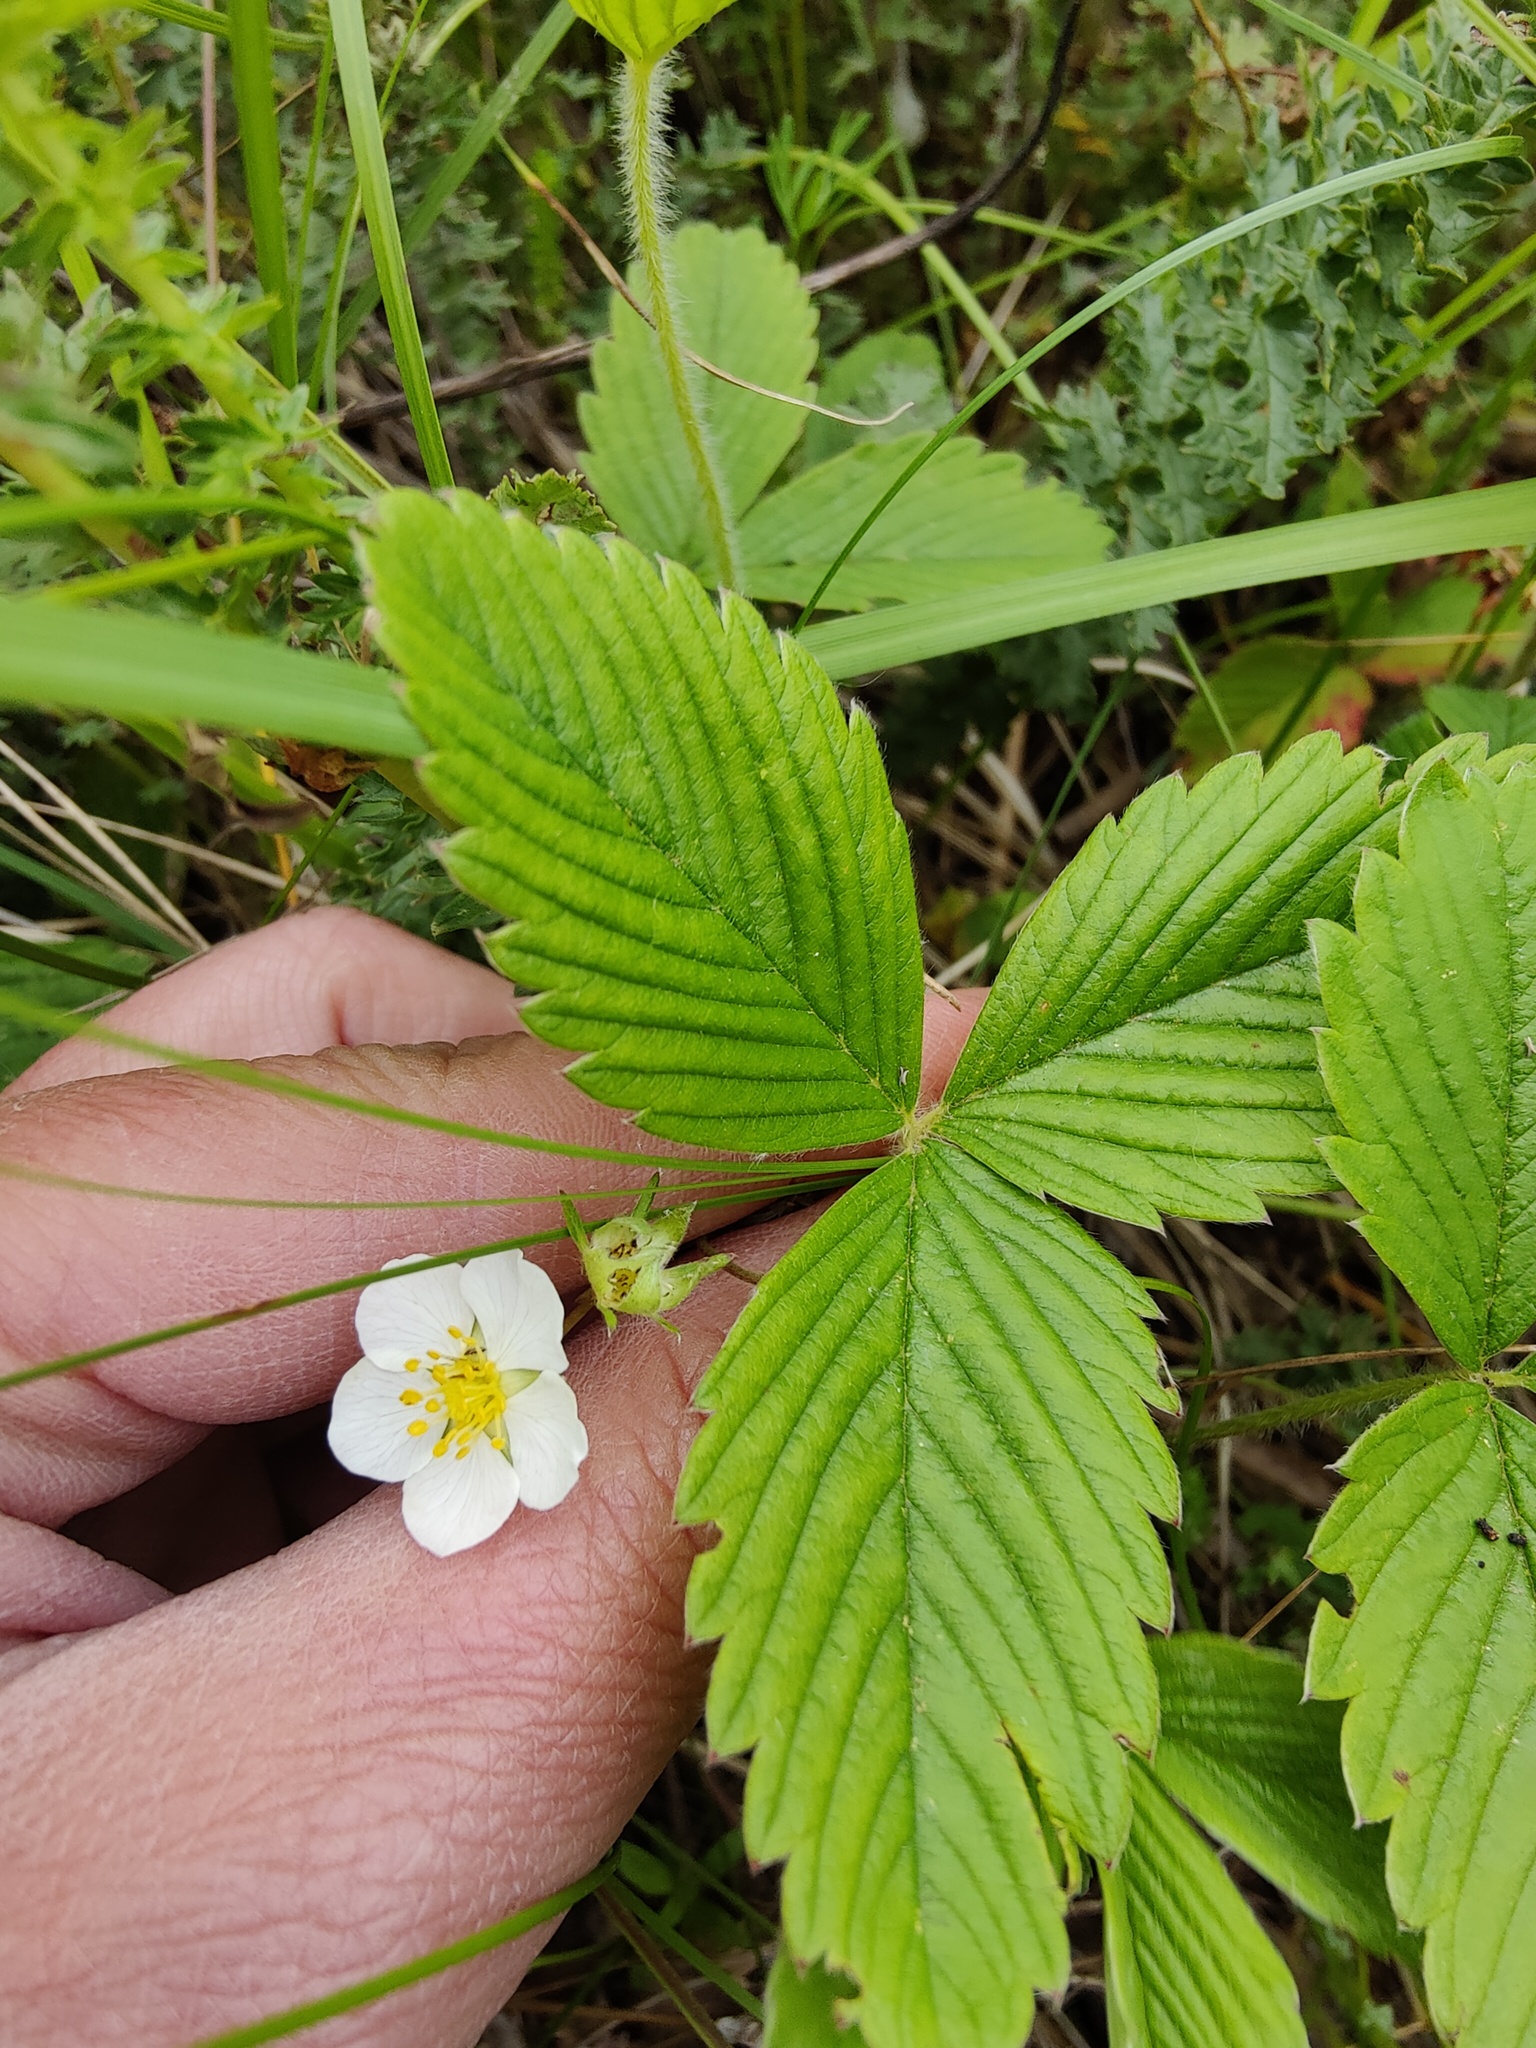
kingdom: Plantae
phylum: Tracheophyta
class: Magnoliopsida
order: Rosales
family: Rosaceae
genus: Fragaria
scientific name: Fragaria viridis
